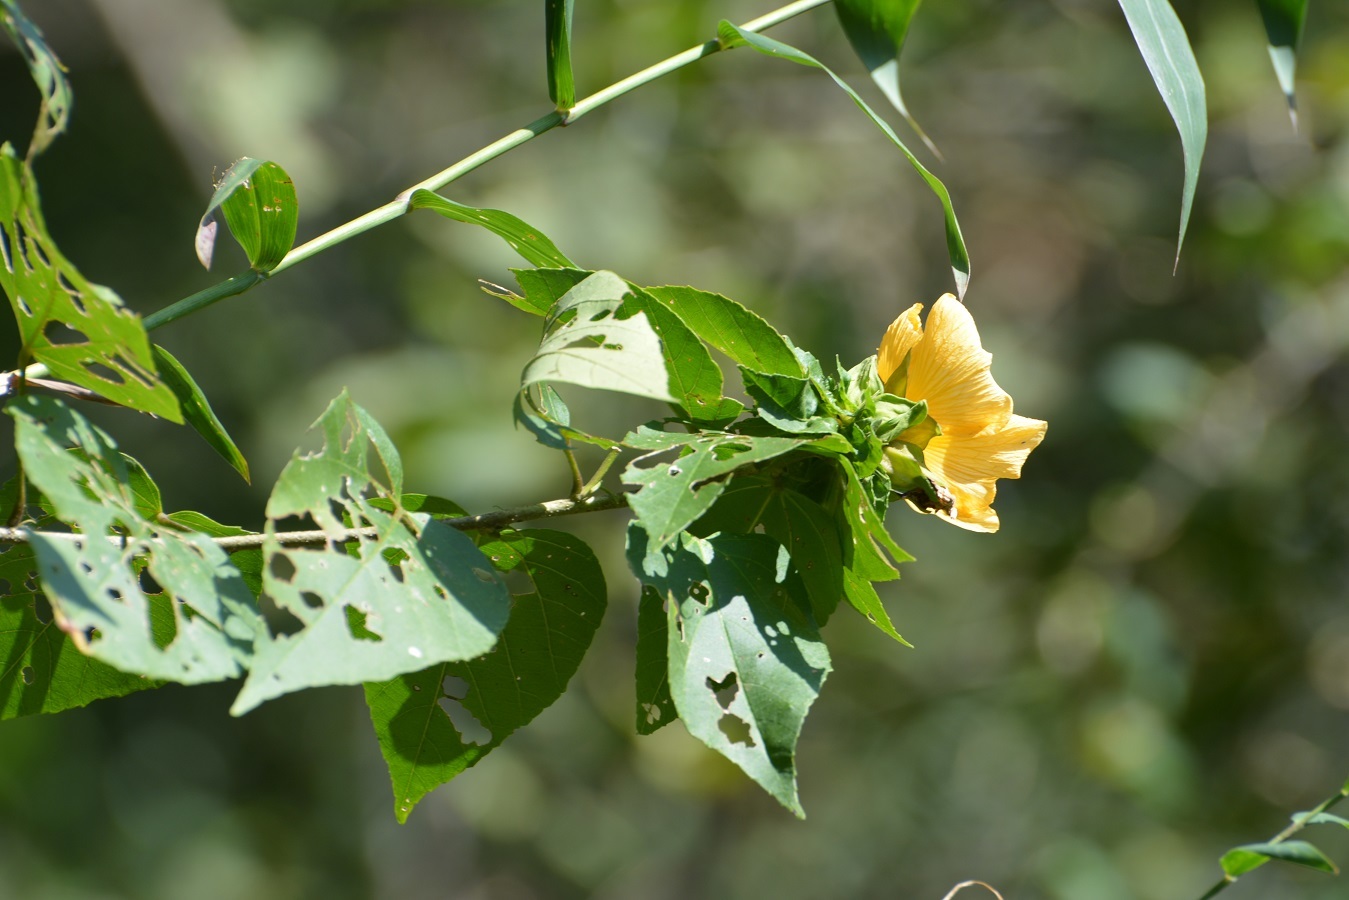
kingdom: Plantae
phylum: Tracheophyta
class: Magnoliopsida
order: Malvales
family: Malvaceae
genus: Dendrosida
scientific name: Dendrosida sharpiana
